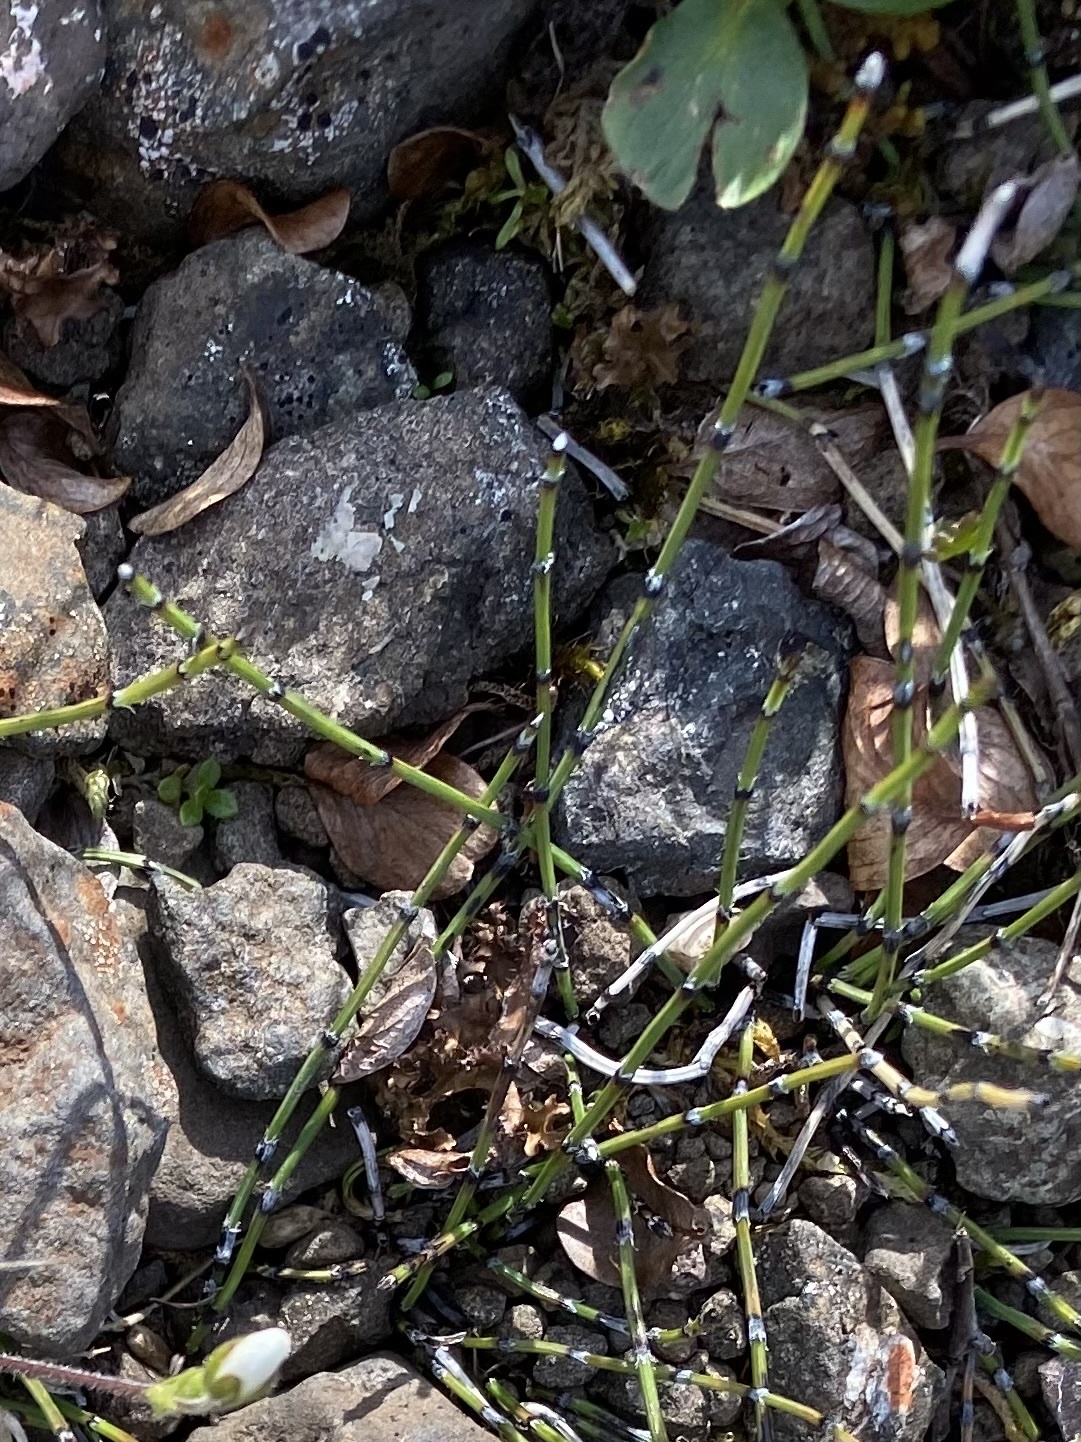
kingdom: Plantae
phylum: Tracheophyta
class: Polypodiopsida
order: Equisetales
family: Equisetaceae
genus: Equisetum
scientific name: Equisetum variegatum
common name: Variegated horsetail
